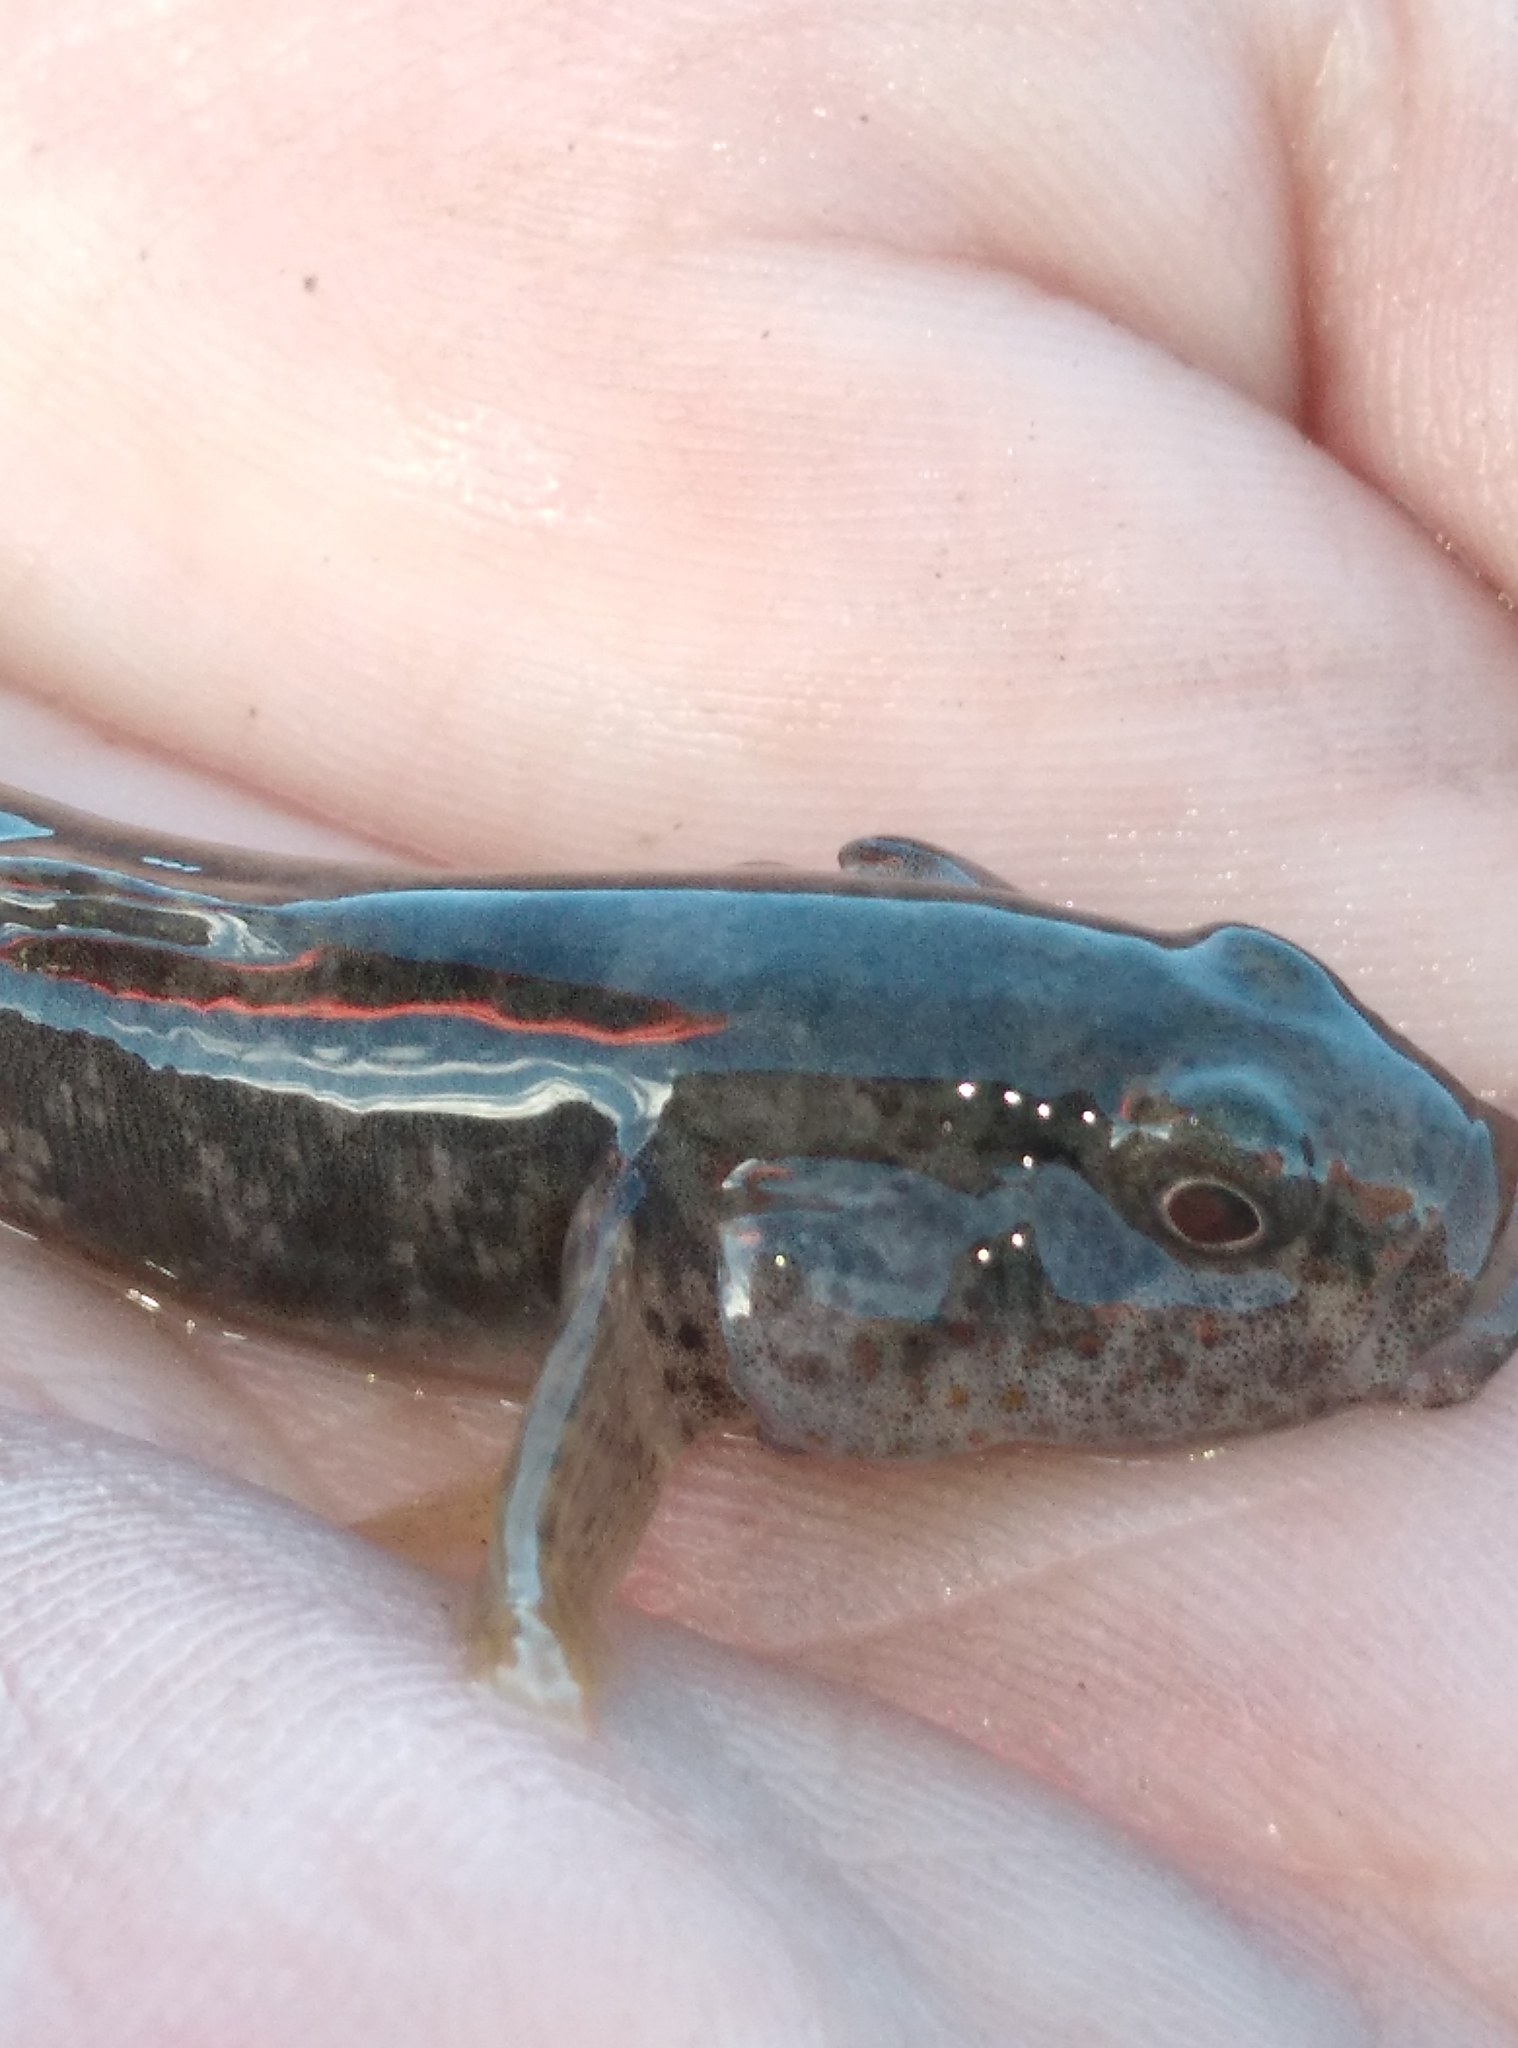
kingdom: Animalia
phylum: Chordata
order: Perciformes
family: Eleotridae
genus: Gobiomorphus
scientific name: Gobiomorphus breviceps
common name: Upland bully
